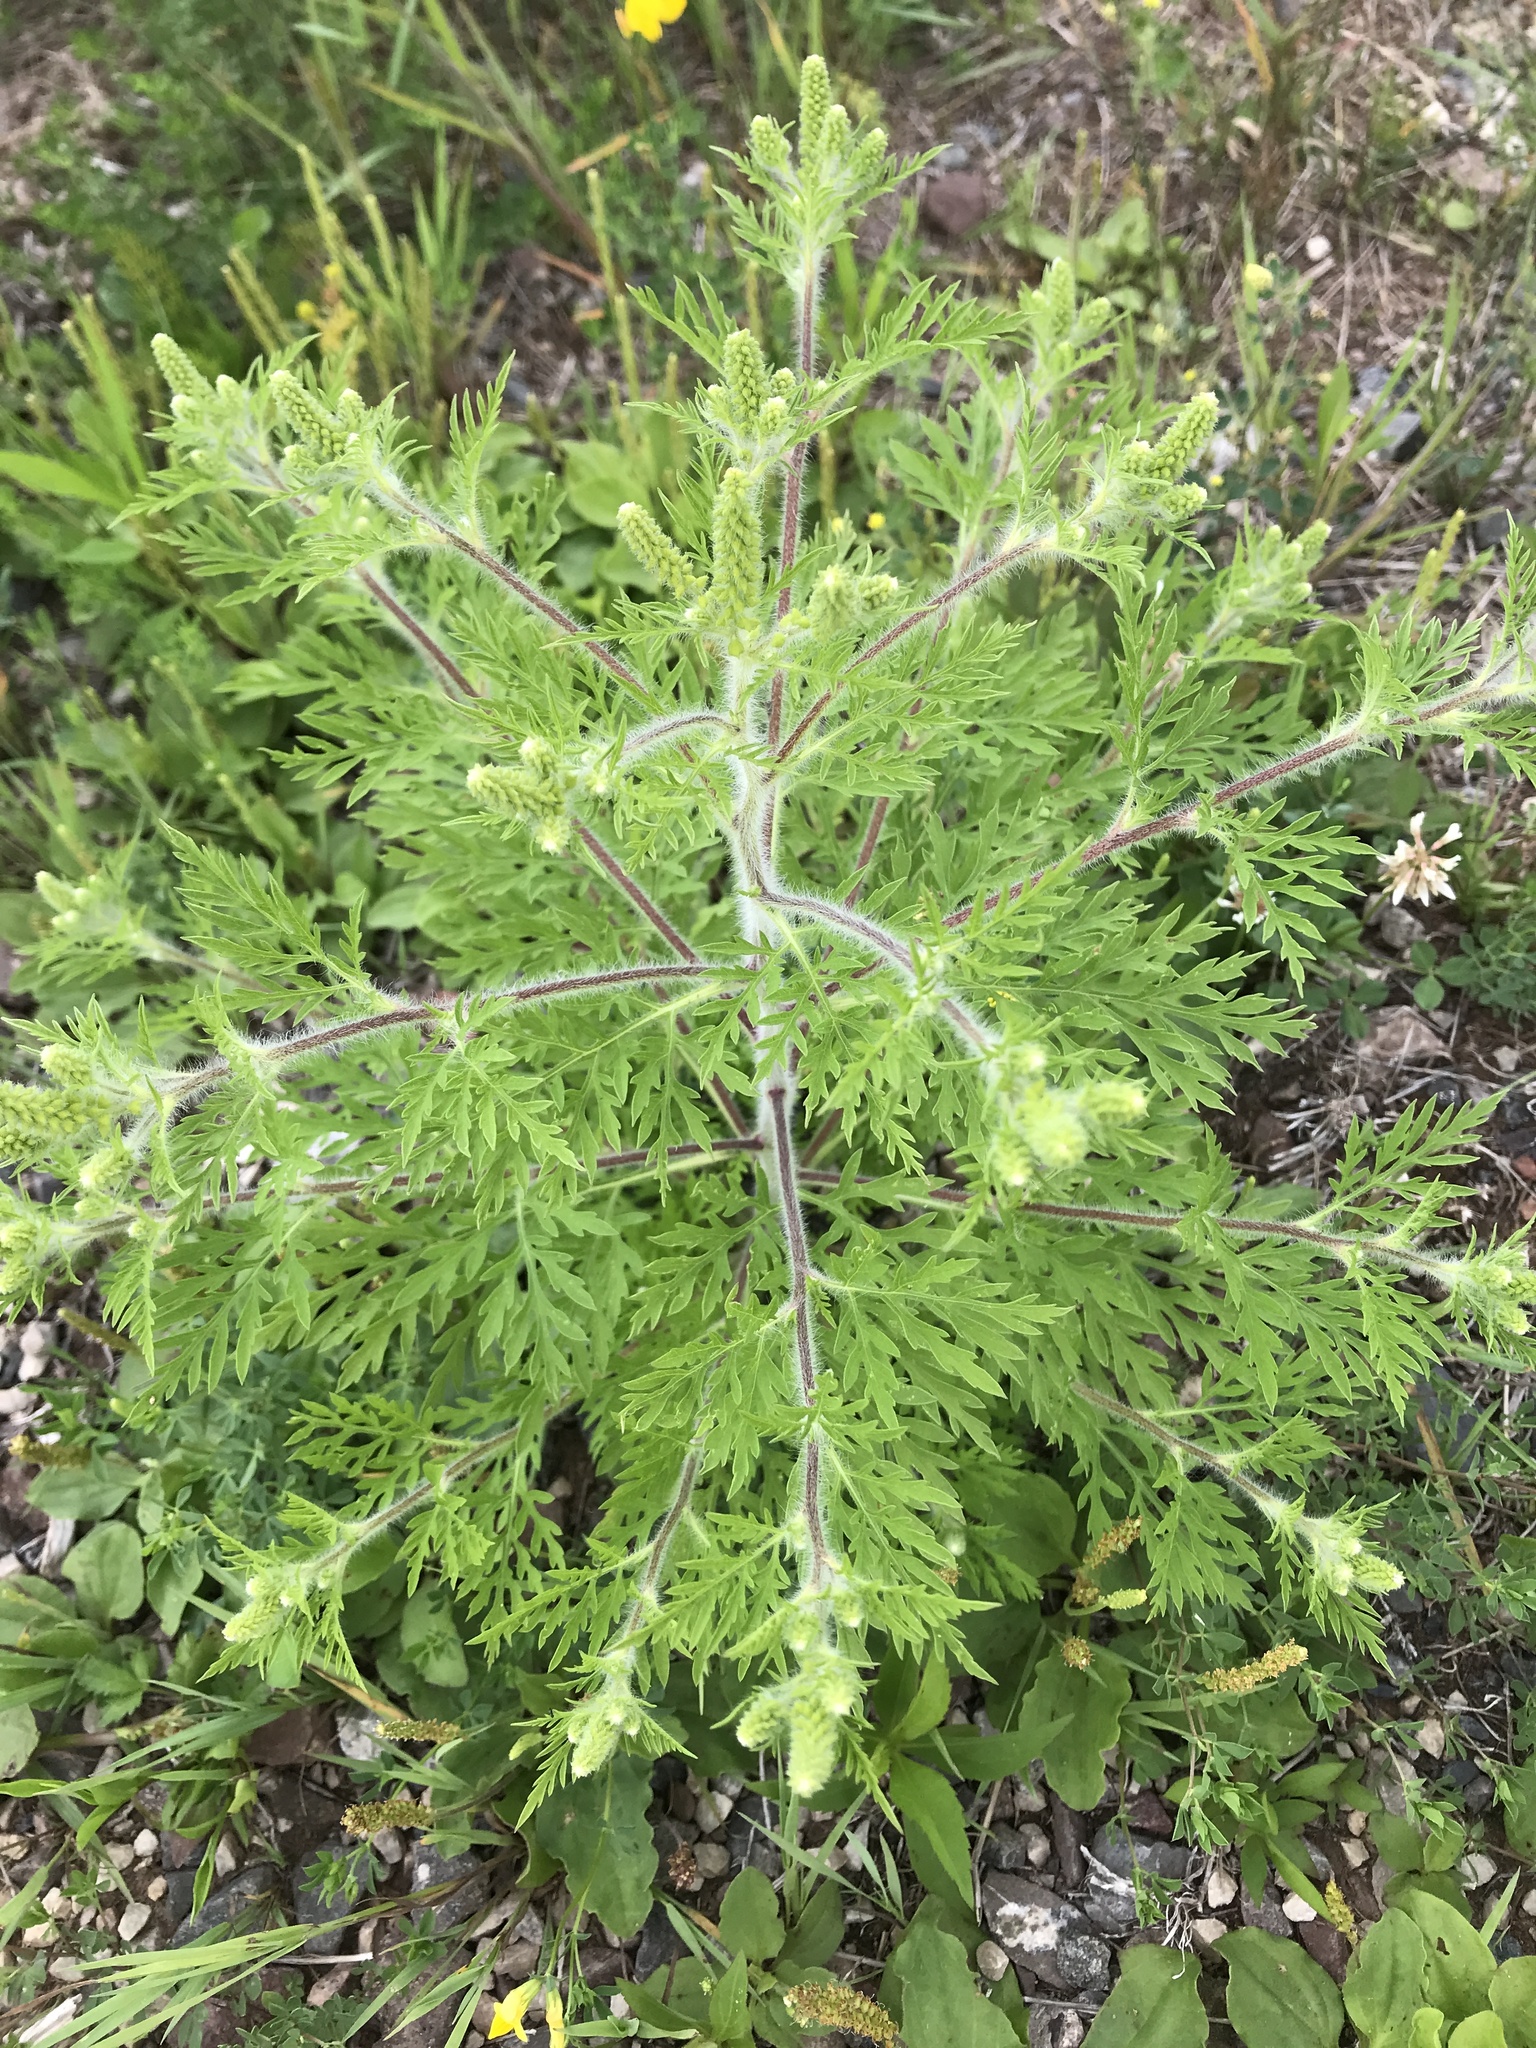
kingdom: Plantae
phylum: Tracheophyta
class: Magnoliopsida
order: Asterales
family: Asteraceae
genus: Ambrosia
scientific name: Ambrosia artemisiifolia
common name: Annual ragweed
